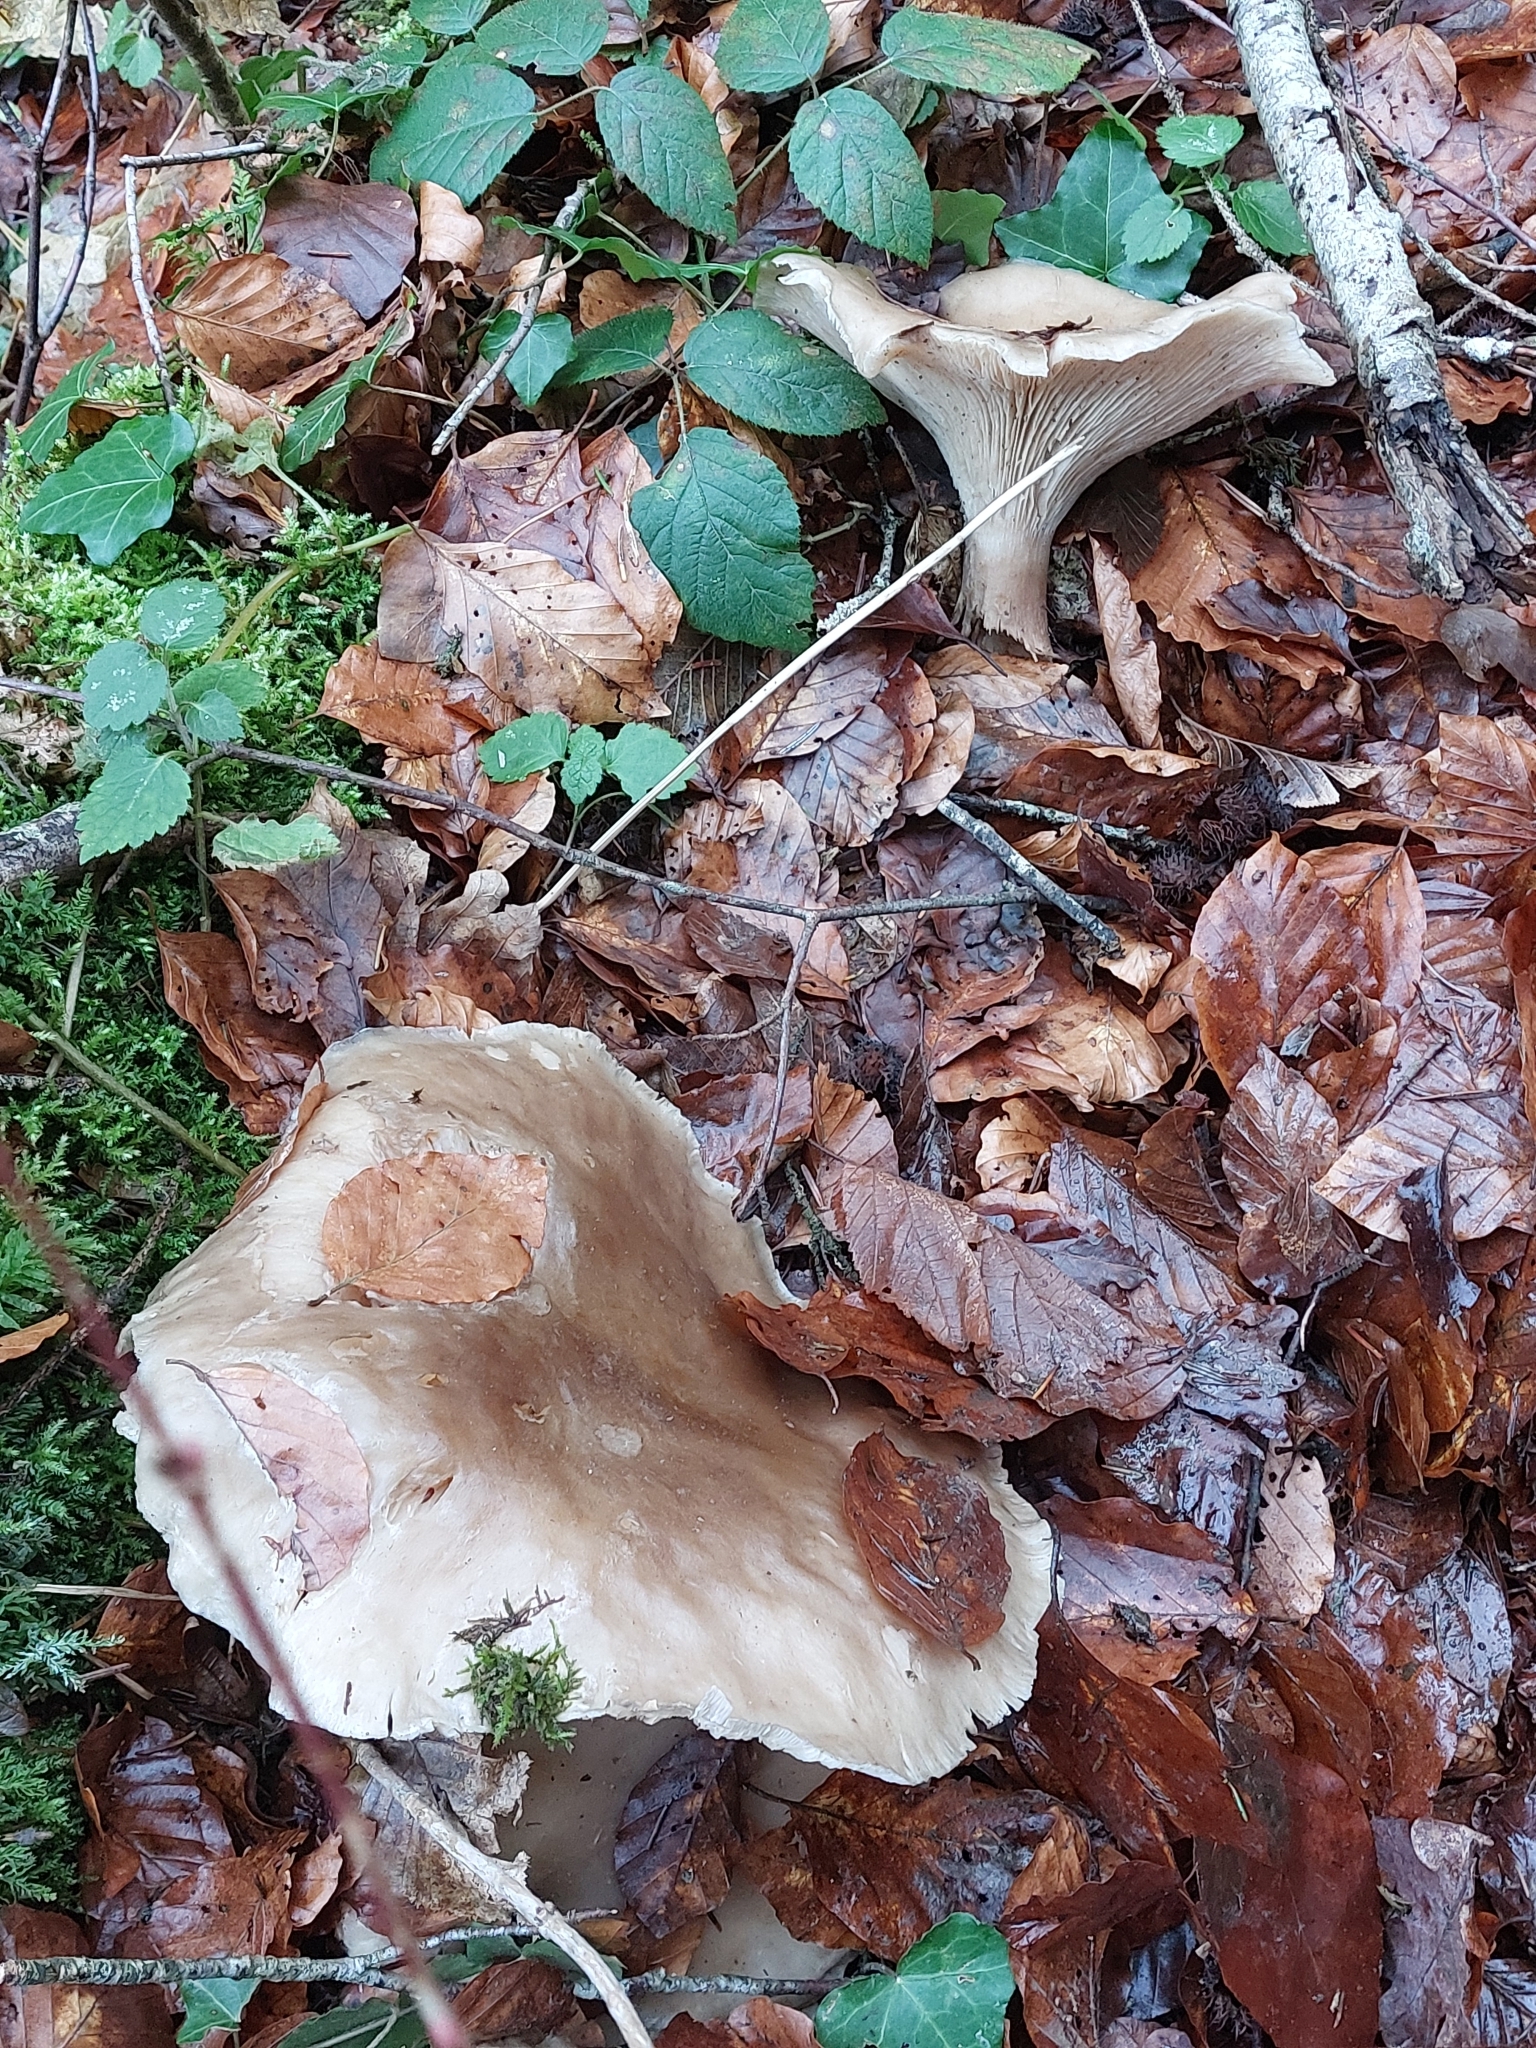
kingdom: Fungi
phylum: Basidiomycota
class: Agaricomycetes
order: Agaricales
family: Tricholomataceae
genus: Clitocybe
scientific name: Clitocybe nebularis
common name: Clouded agaric
